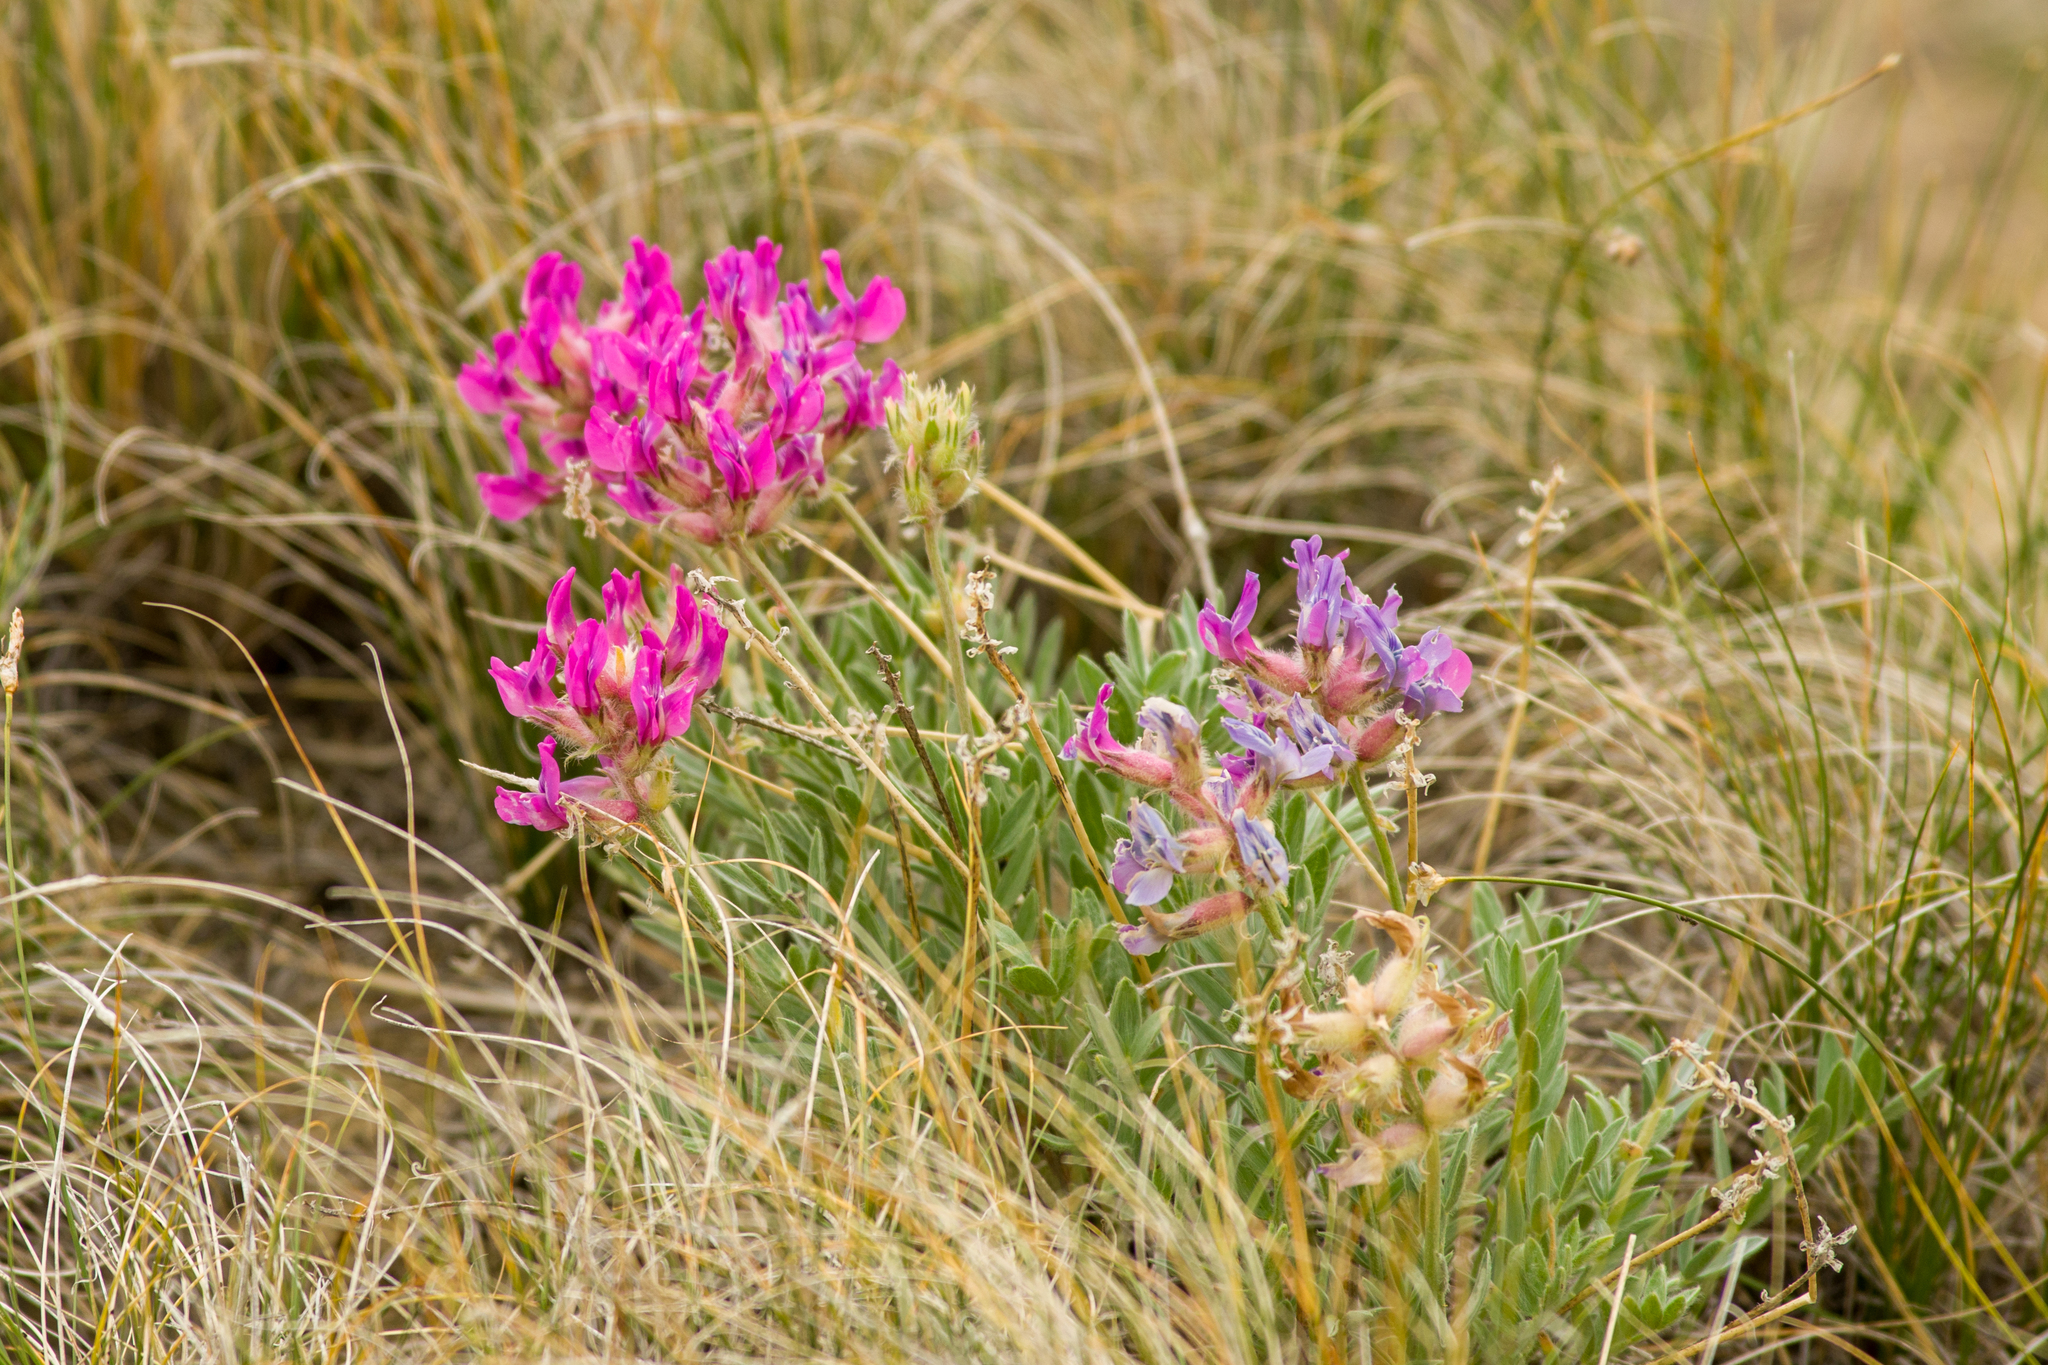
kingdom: Plantae
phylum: Tracheophyta
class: Magnoliopsida
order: Fabales
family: Fabaceae
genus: Oxytropis
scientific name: Oxytropis besseyi
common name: Bessey's locoweed
